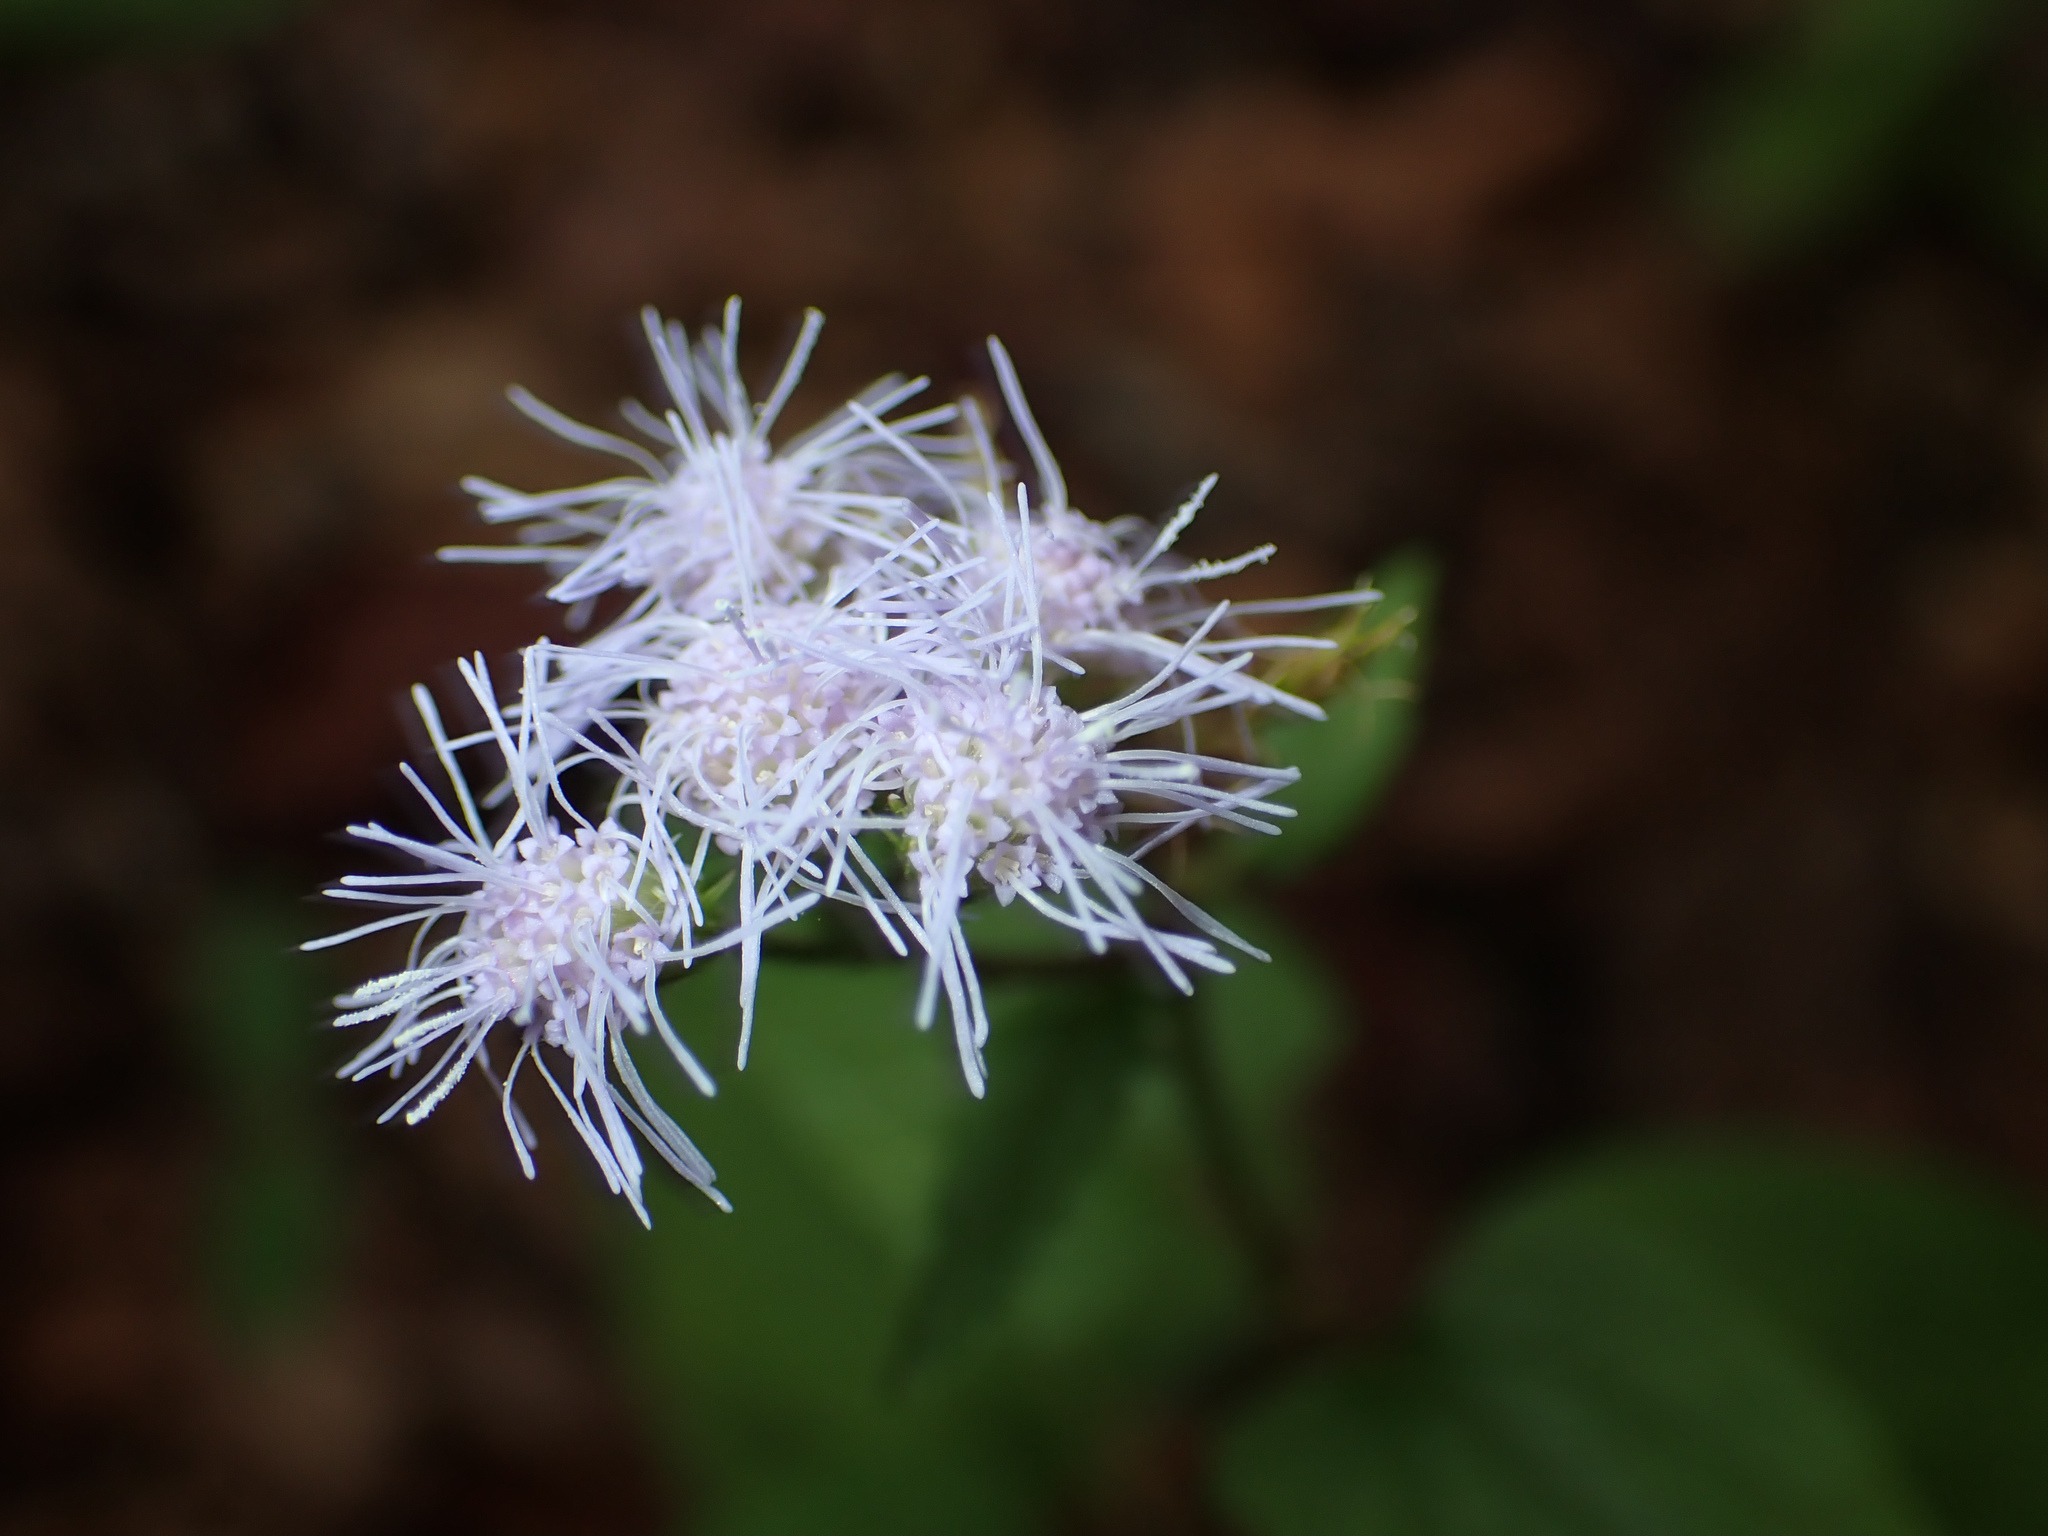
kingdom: Plantae
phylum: Tracheophyta
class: Magnoliopsida
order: Asterales
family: Asteraceae
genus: Conoclinium
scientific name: Conoclinium coelestinum
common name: Blue mistflower
